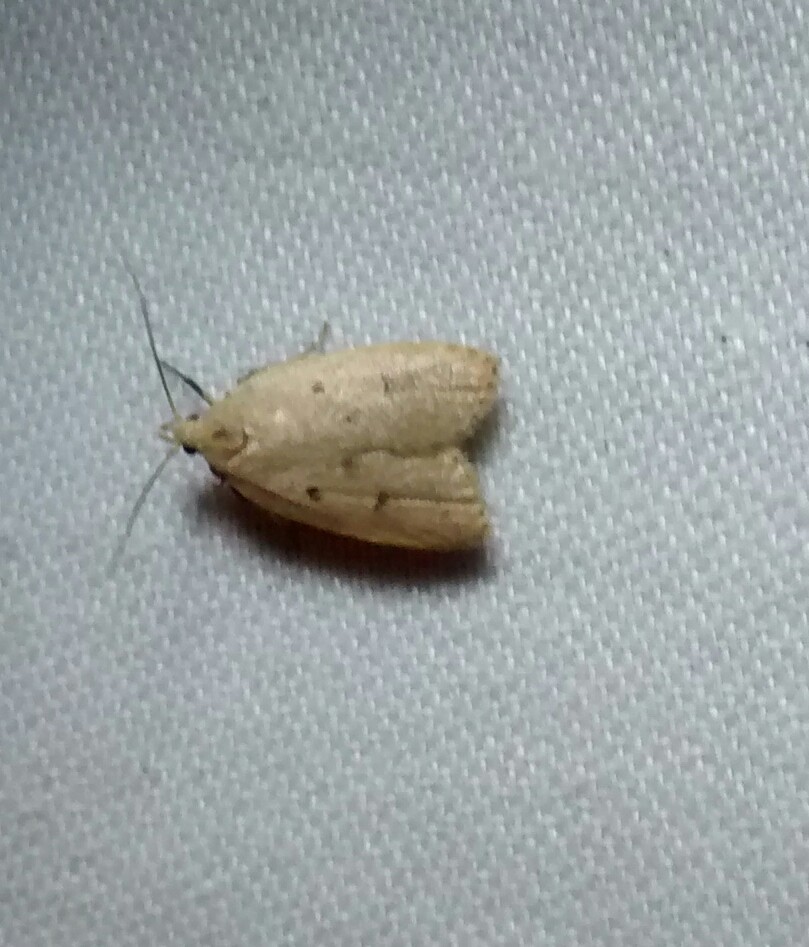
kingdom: Animalia
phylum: Arthropoda
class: Insecta
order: Lepidoptera
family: Peleopodidae
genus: Machimia
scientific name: Machimia tentoriferella
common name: Gold-striped leaftier moth
